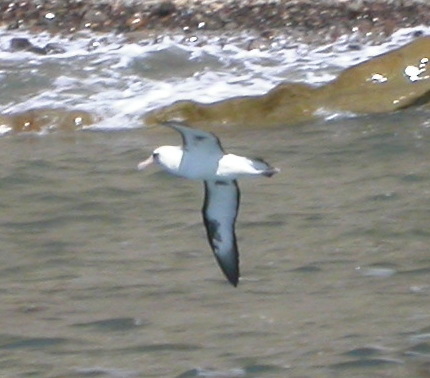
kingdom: Animalia
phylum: Chordata
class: Aves
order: Procellariiformes
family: Diomedeidae
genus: Phoebastria
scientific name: Phoebastria immutabilis
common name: Laysan albatross
